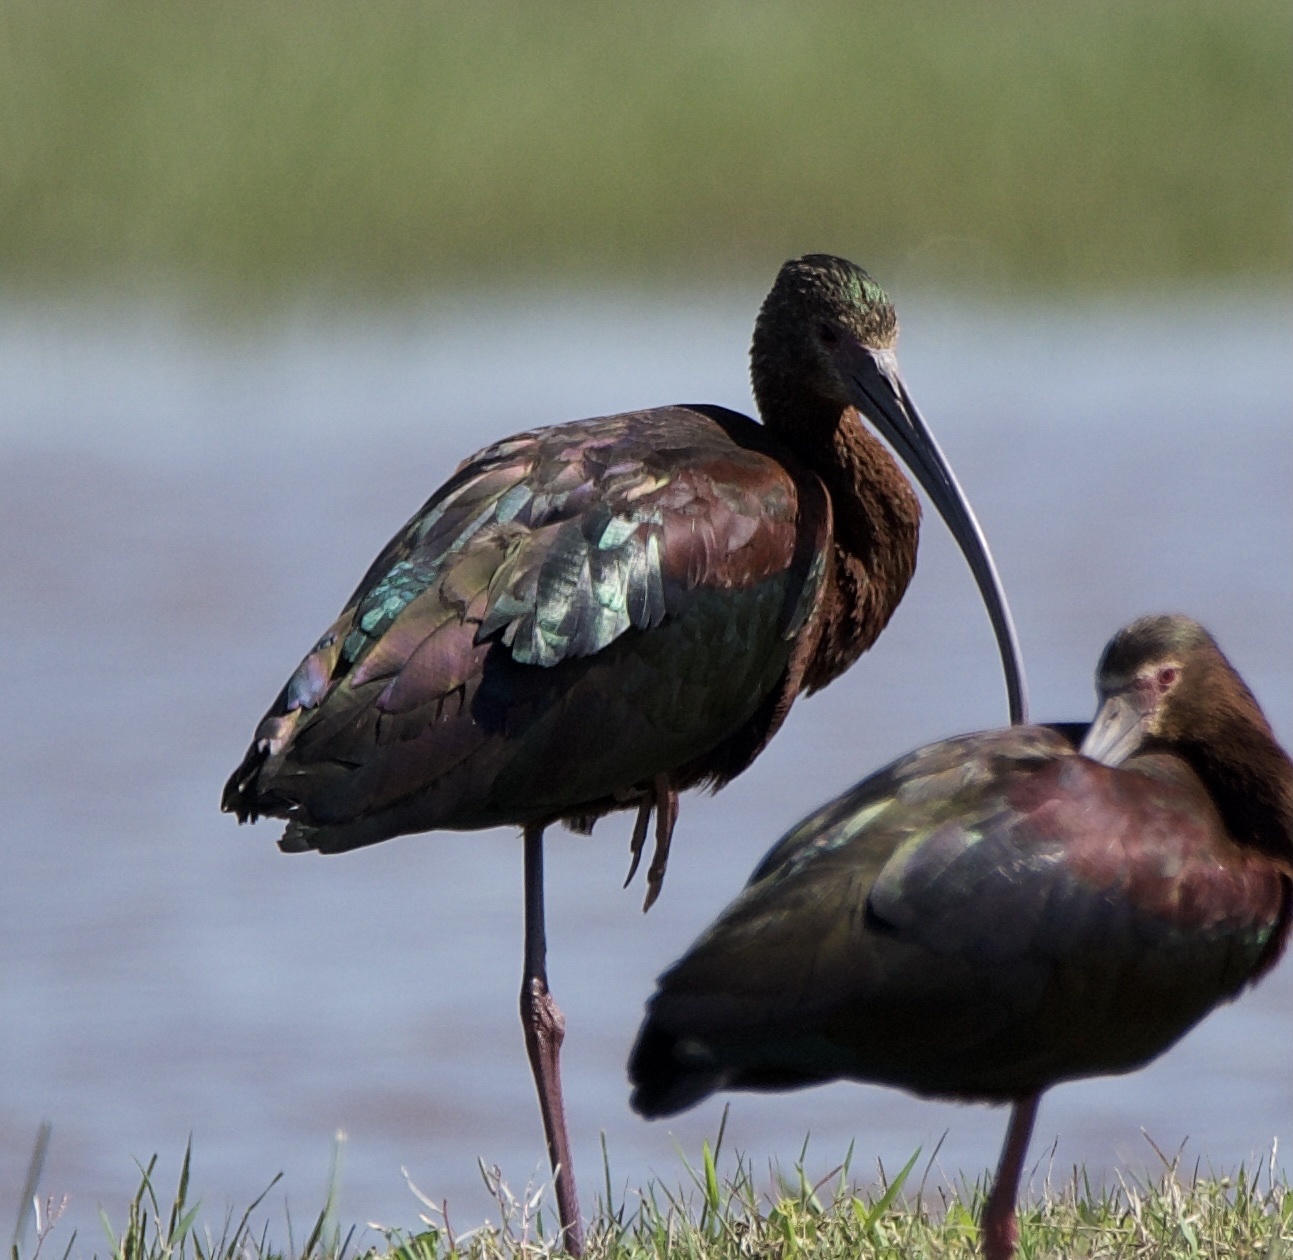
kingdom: Animalia
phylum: Chordata
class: Aves
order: Pelecaniformes
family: Threskiornithidae
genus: Plegadis
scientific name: Plegadis chihi
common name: White-faced ibis
